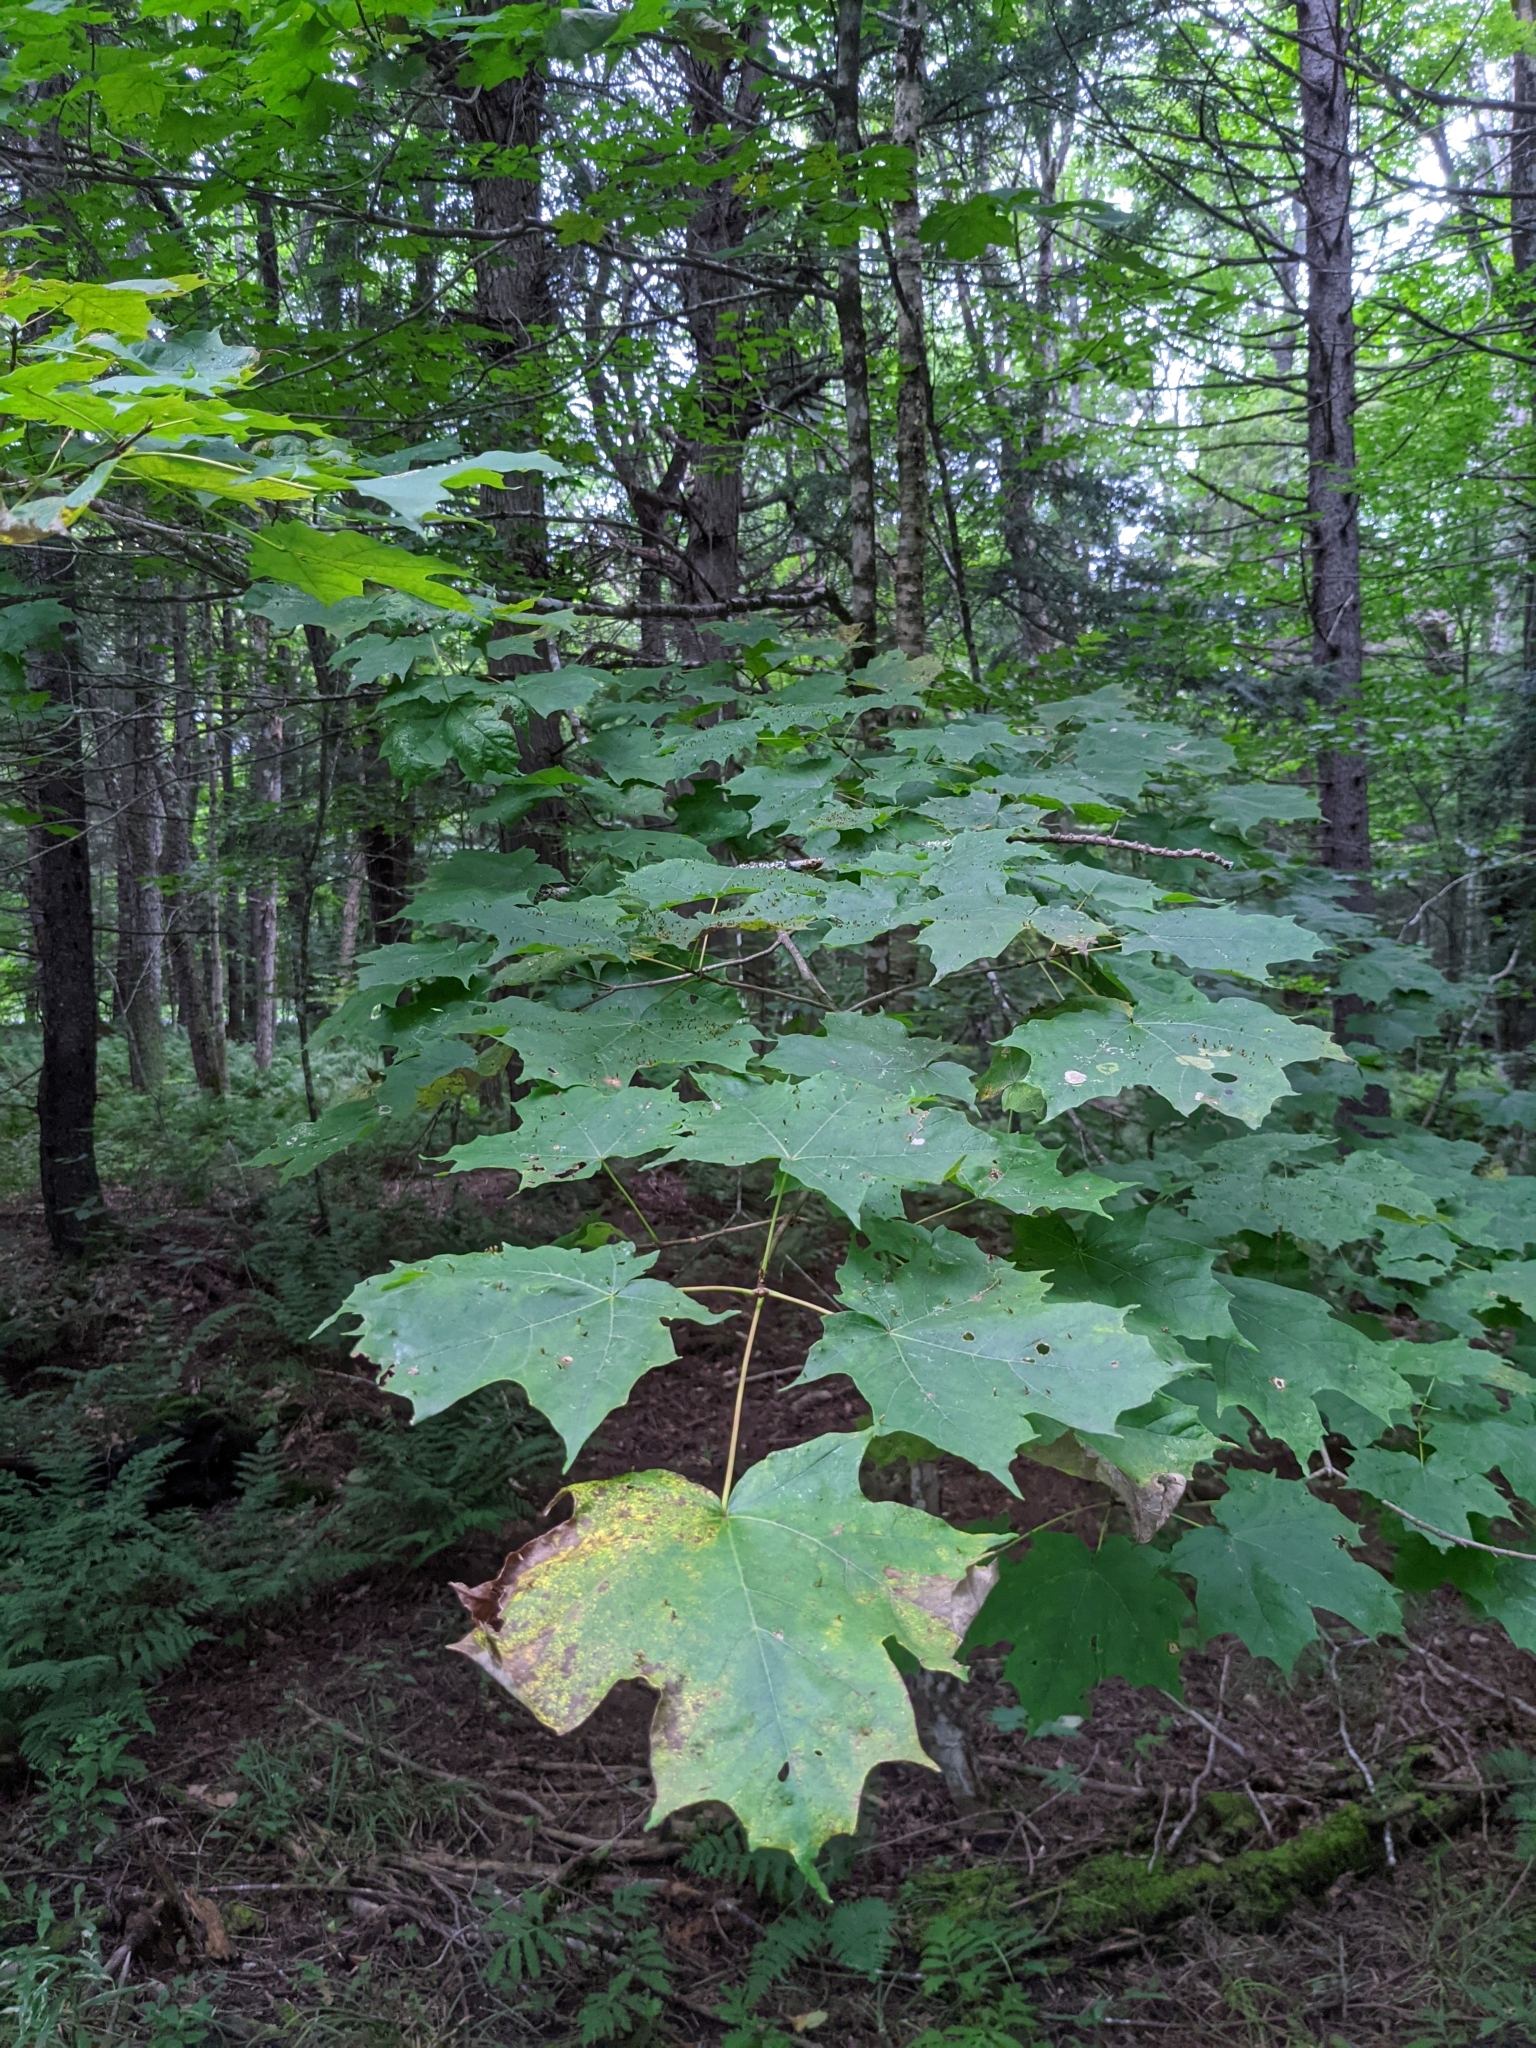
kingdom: Plantae
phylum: Tracheophyta
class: Magnoliopsida
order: Sapindales
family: Sapindaceae
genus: Acer
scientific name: Acer saccharum
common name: Sugar maple
